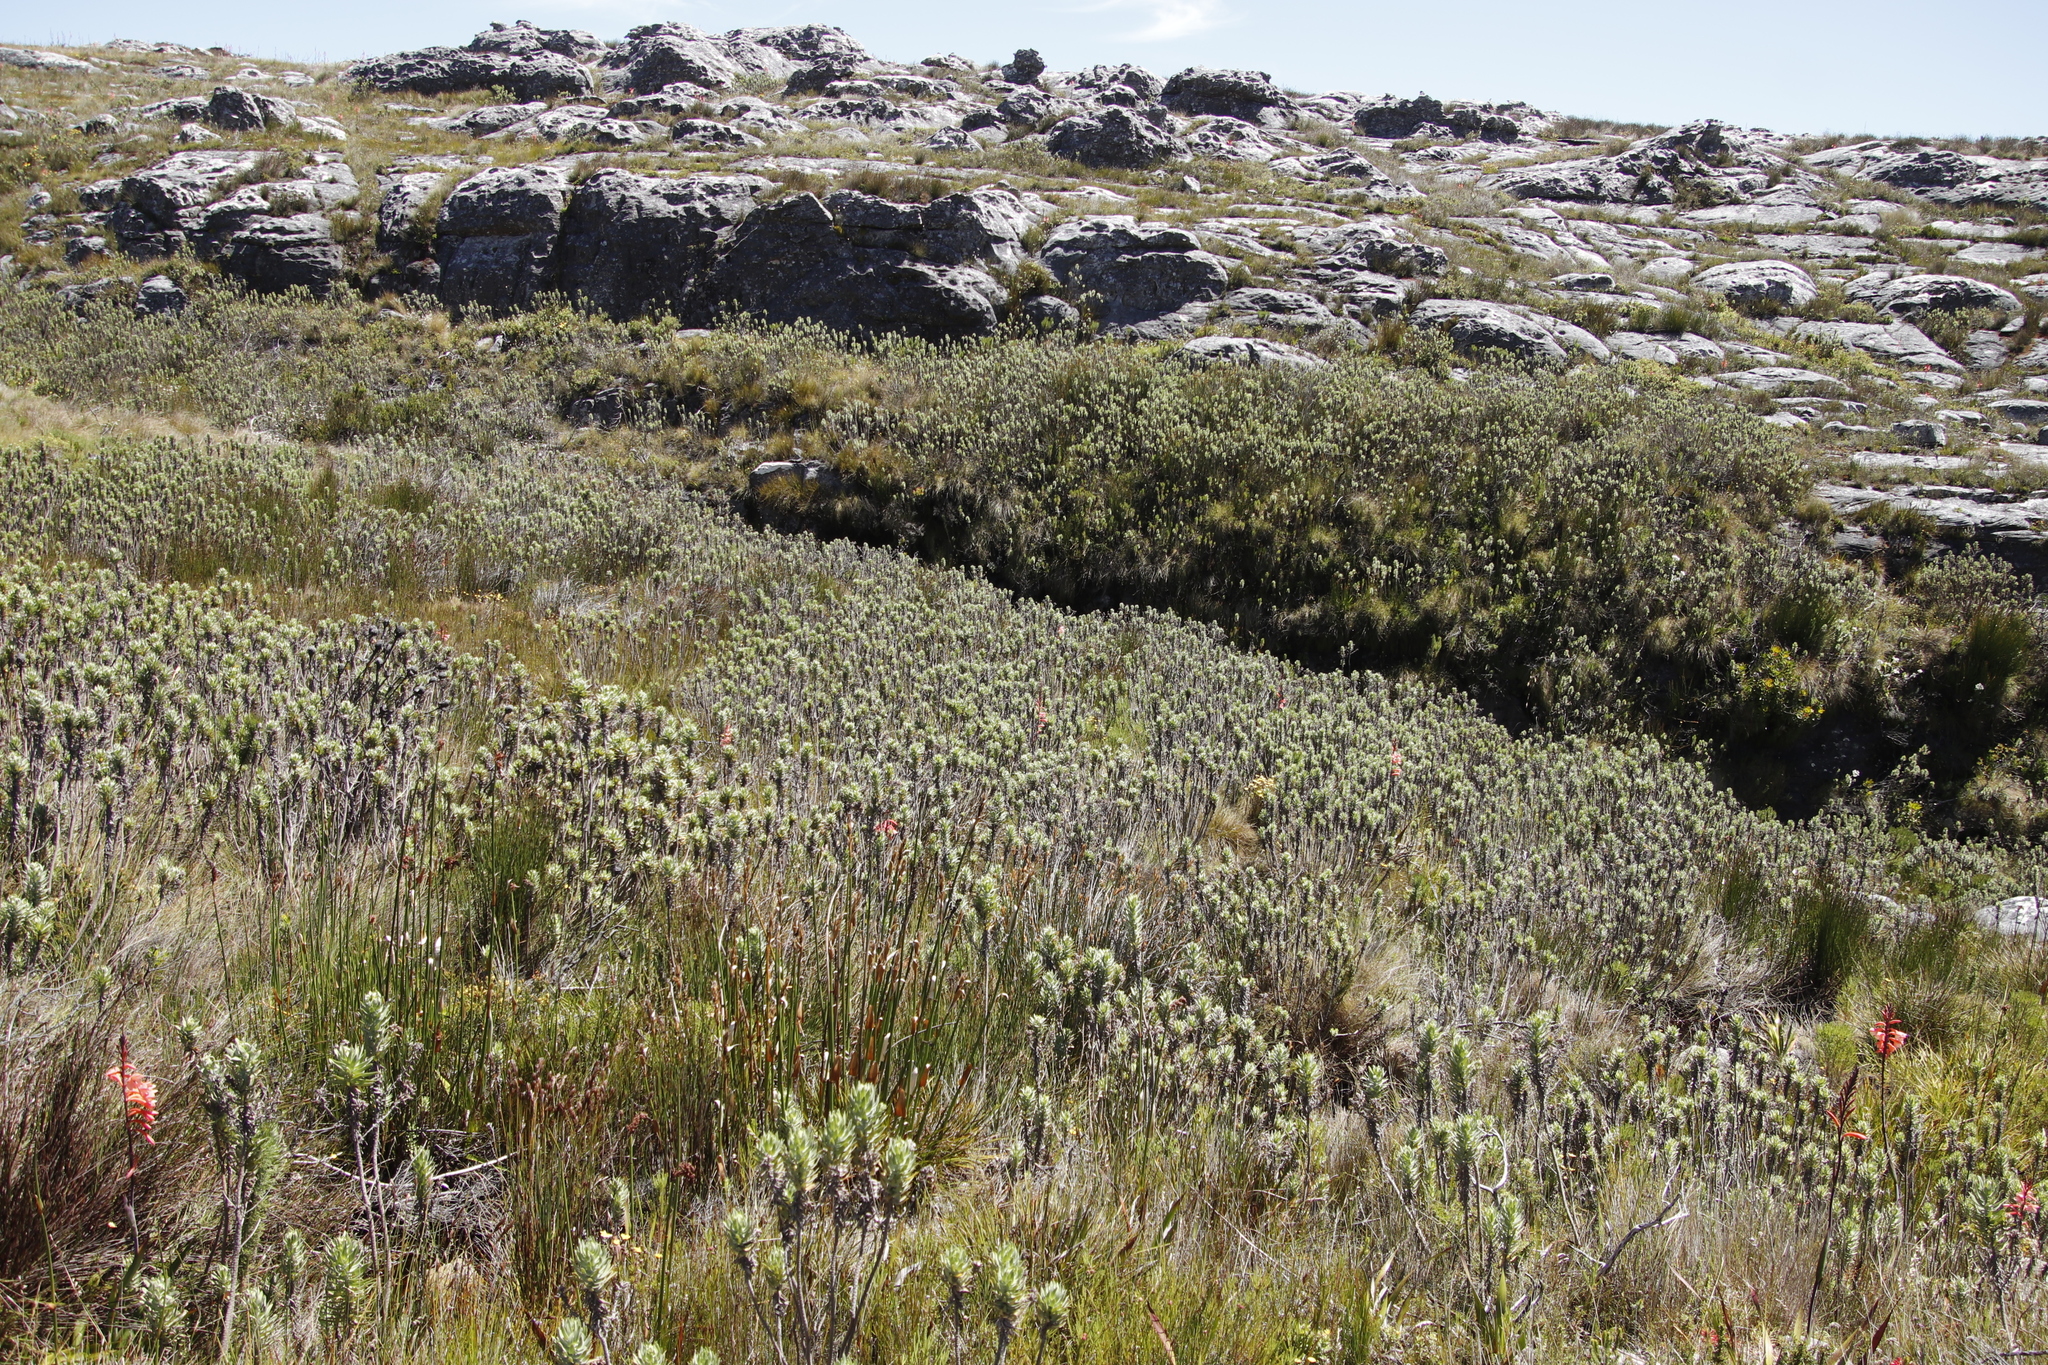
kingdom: Plantae
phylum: Tracheophyta
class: Magnoliopsida
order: Asterales
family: Asteraceae
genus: Osmitopsis
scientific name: Osmitopsis asteriscoides
